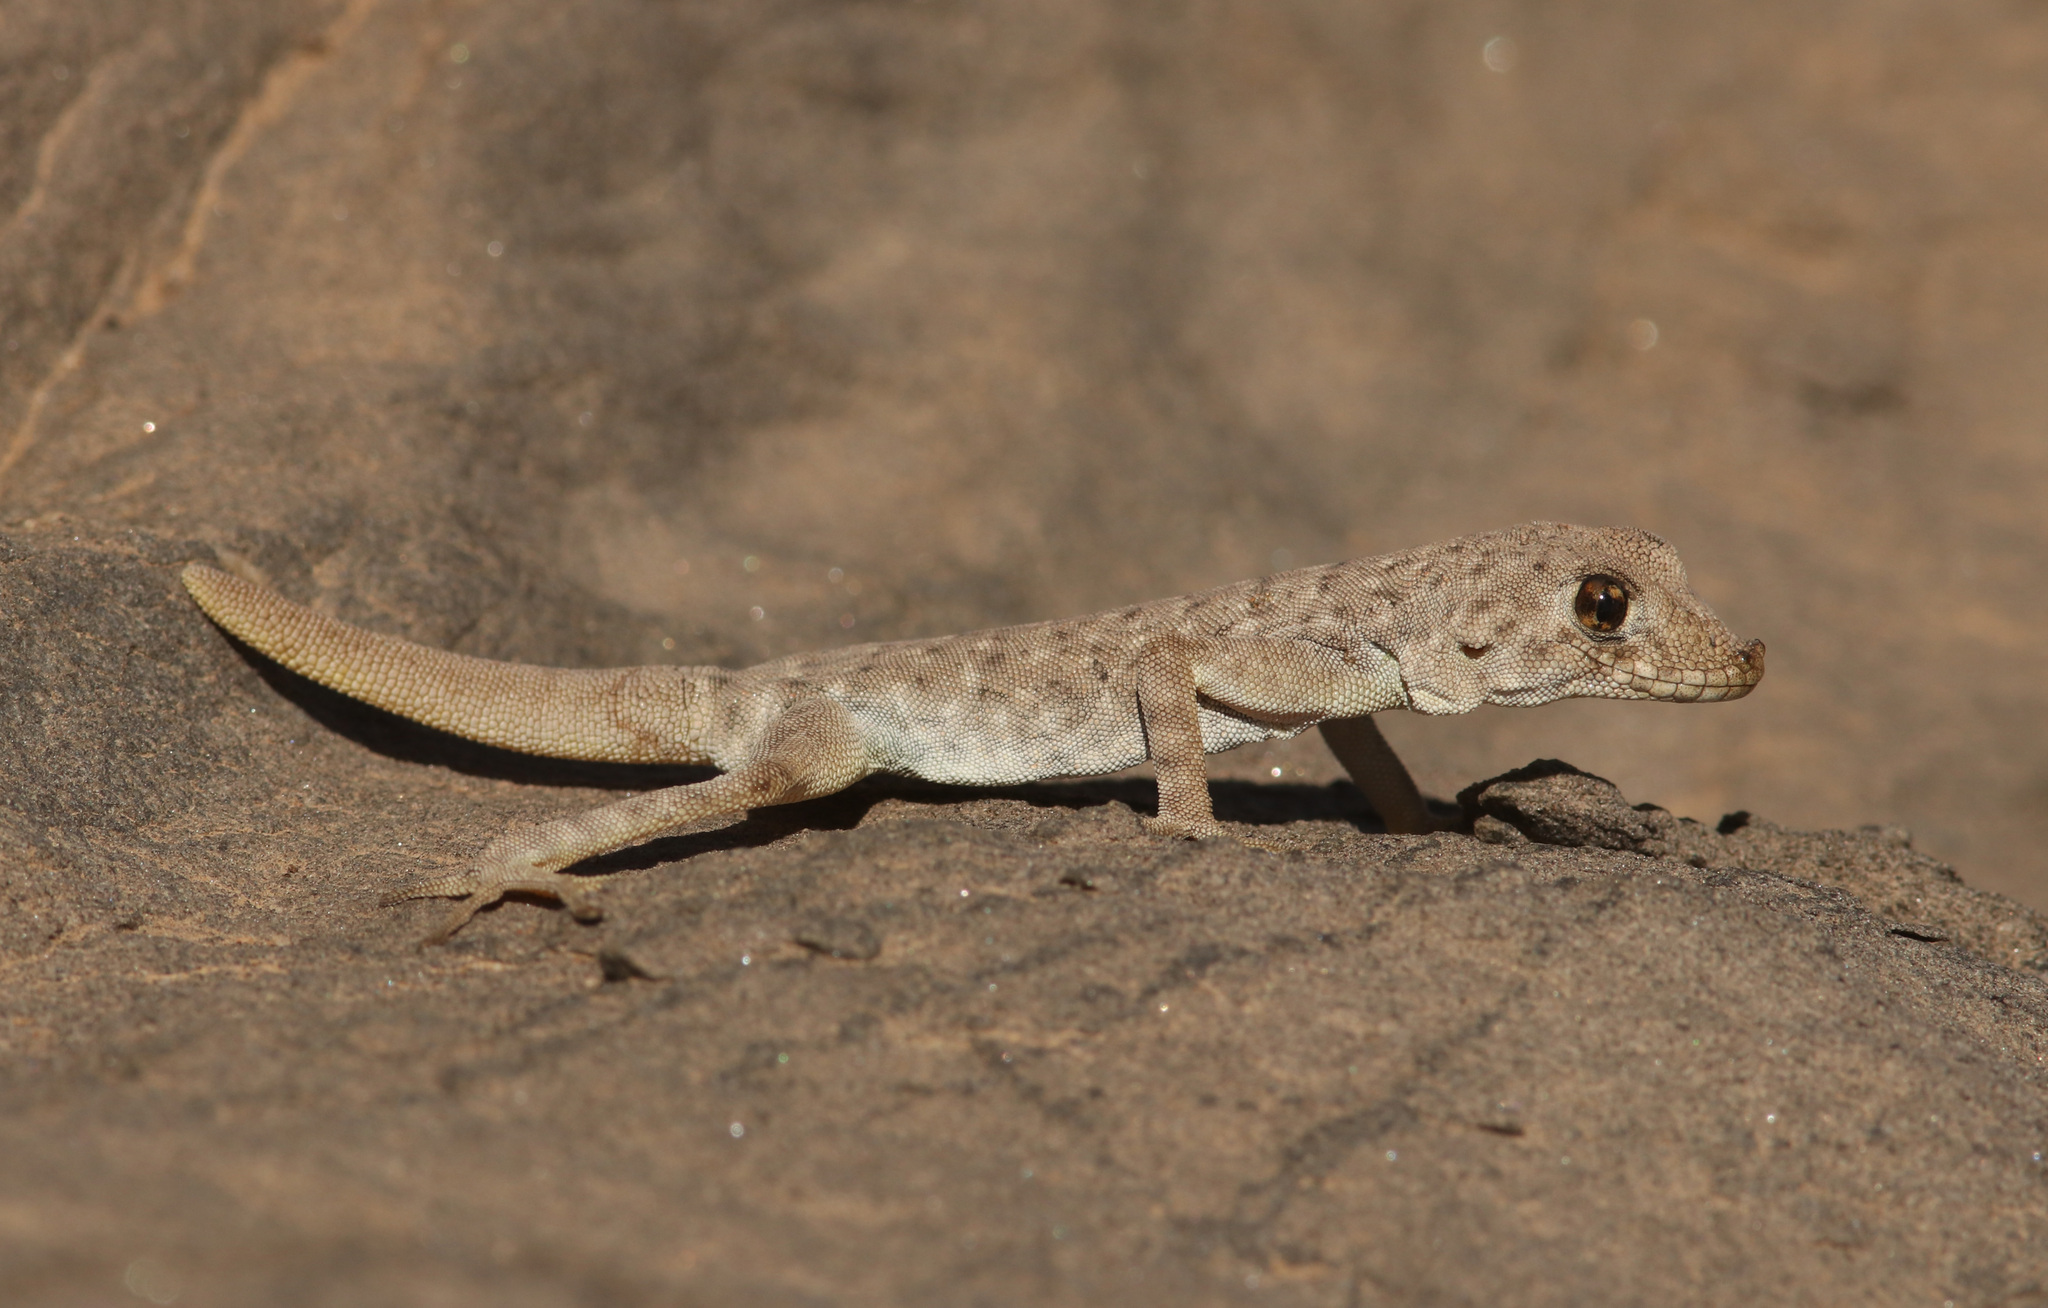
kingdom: Animalia
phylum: Chordata
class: Squamata
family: Gekkonidae
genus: Rhoptropus
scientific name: Rhoptropus afer
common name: Namib day gecko
